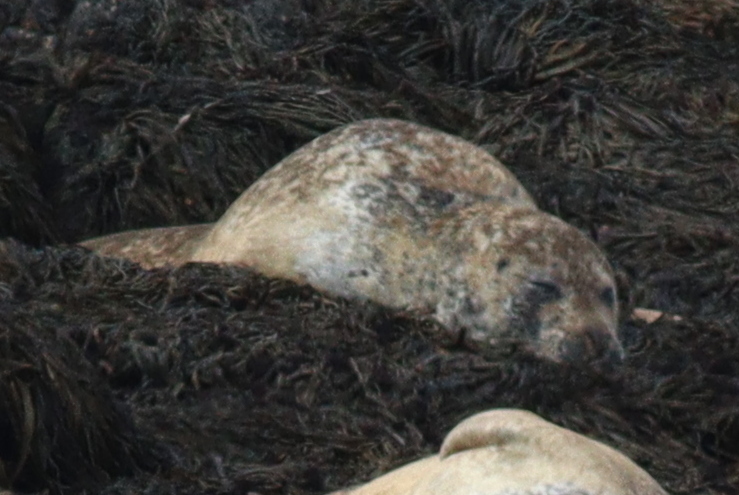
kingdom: Animalia
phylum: Chordata
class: Mammalia
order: Carnivora
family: Phocidae
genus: Phoca
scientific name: Phoca vitulina
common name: Harbor seal
